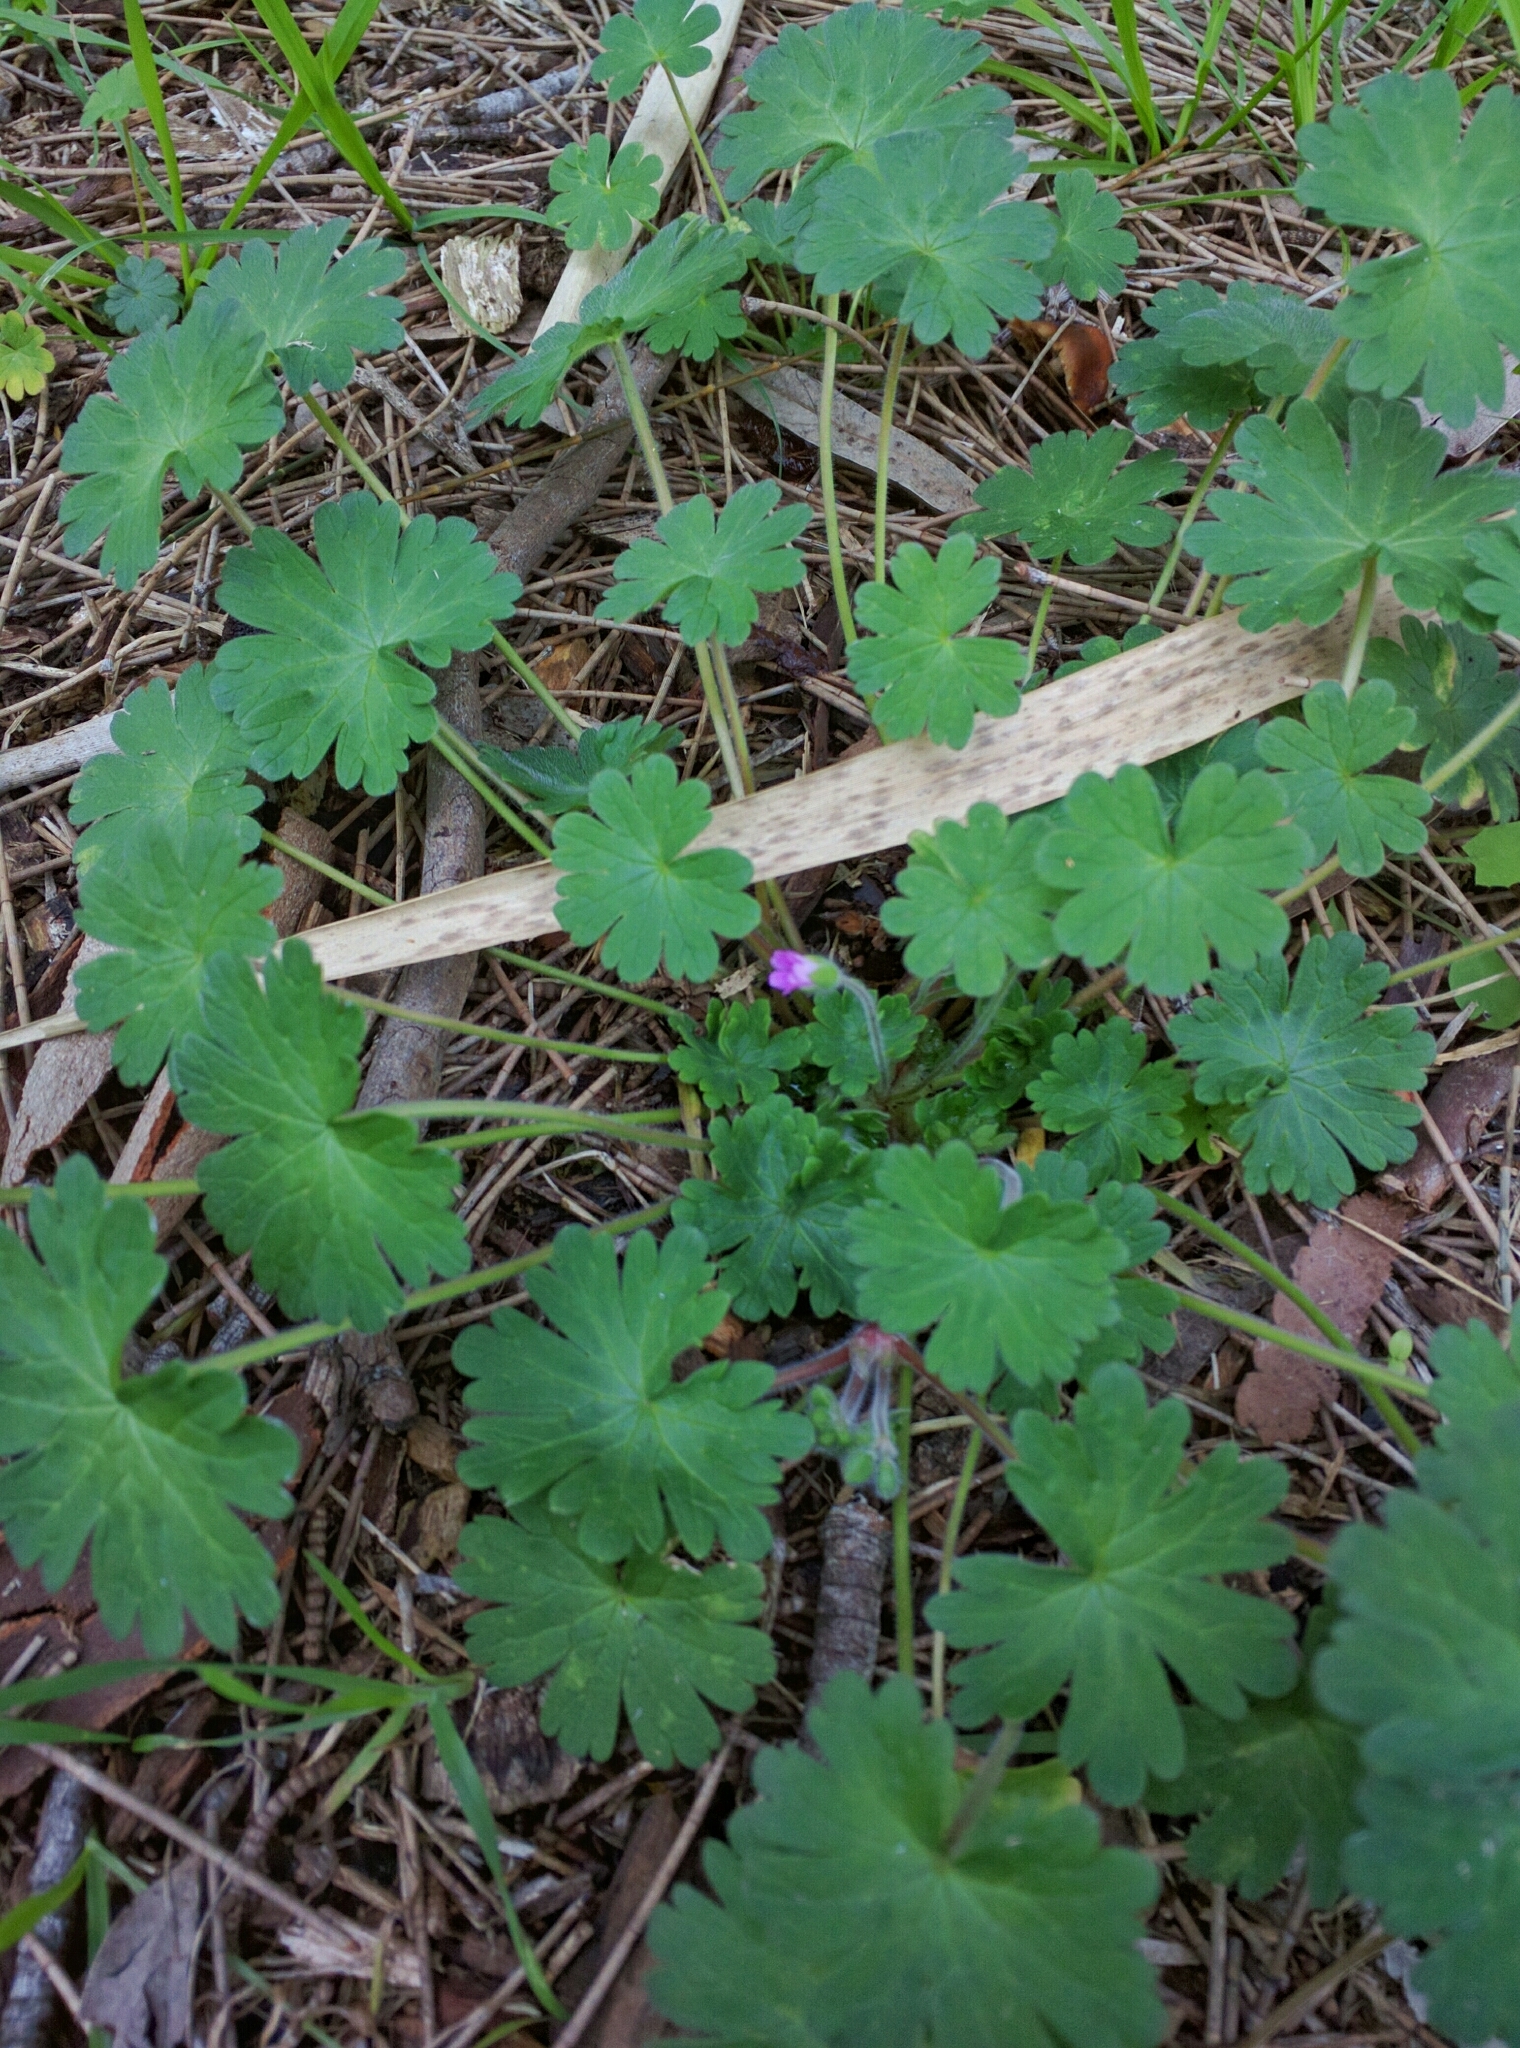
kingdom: Plantae
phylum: Tracheophyta
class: Magnoliopsida
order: Geraniales
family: Geraniaceae
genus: Geranium
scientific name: Geranium molle
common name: Dove's-foot crane's-bill
